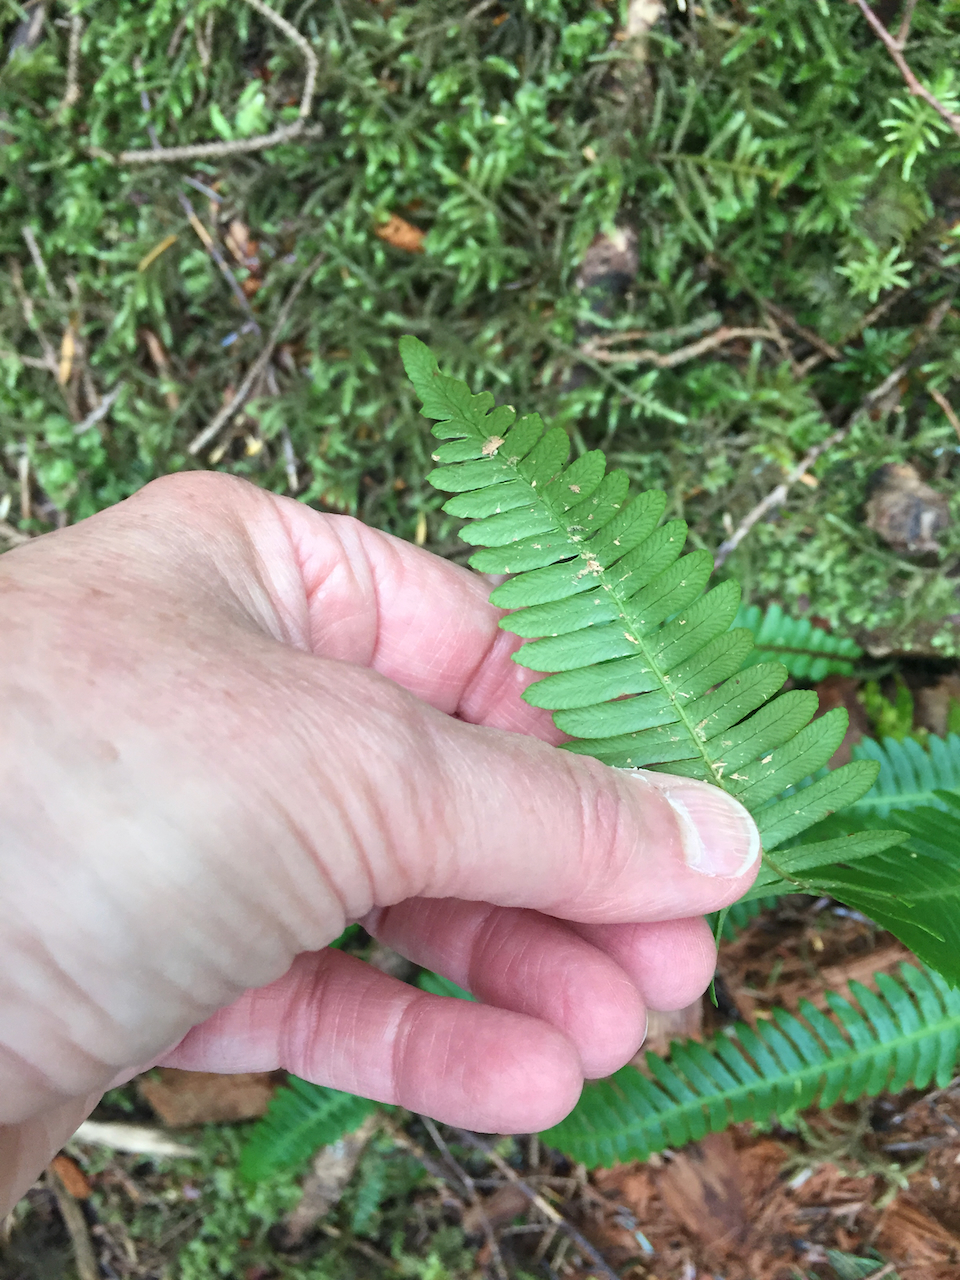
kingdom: Plantae
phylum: Tracheophyta
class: Polypodiopsida
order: Polypodiales
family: Blechnaceae
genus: Struthiopteris
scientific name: Struthiopteris spicant
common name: Deer fern
